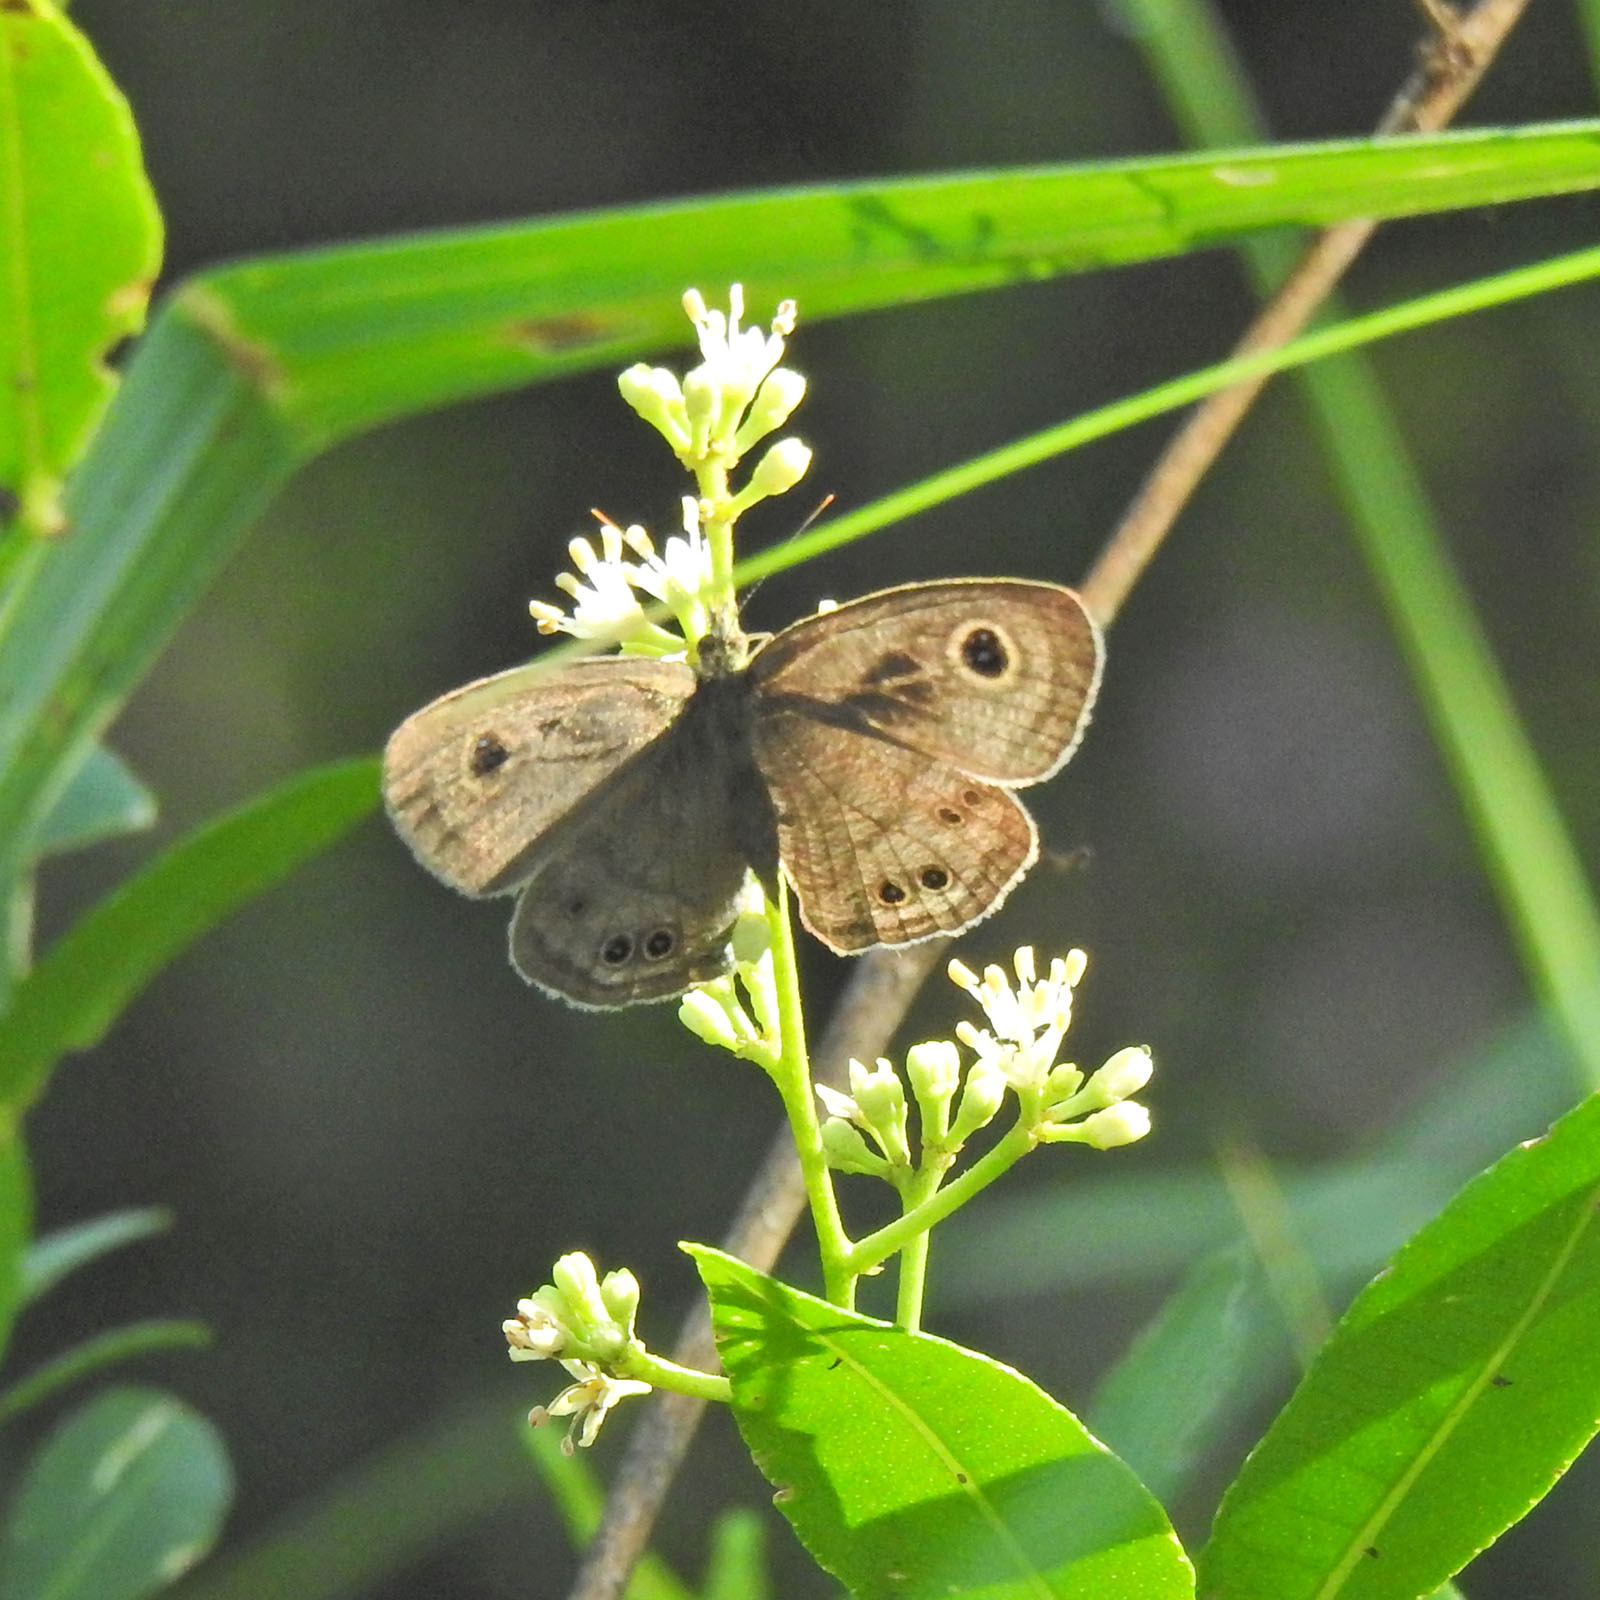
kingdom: Animalia
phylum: Arthropoda
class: Insecta
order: Lepidoptera
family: Nymphalidae
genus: Ypthima
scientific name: Ypthima baldus
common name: Common five-ring
